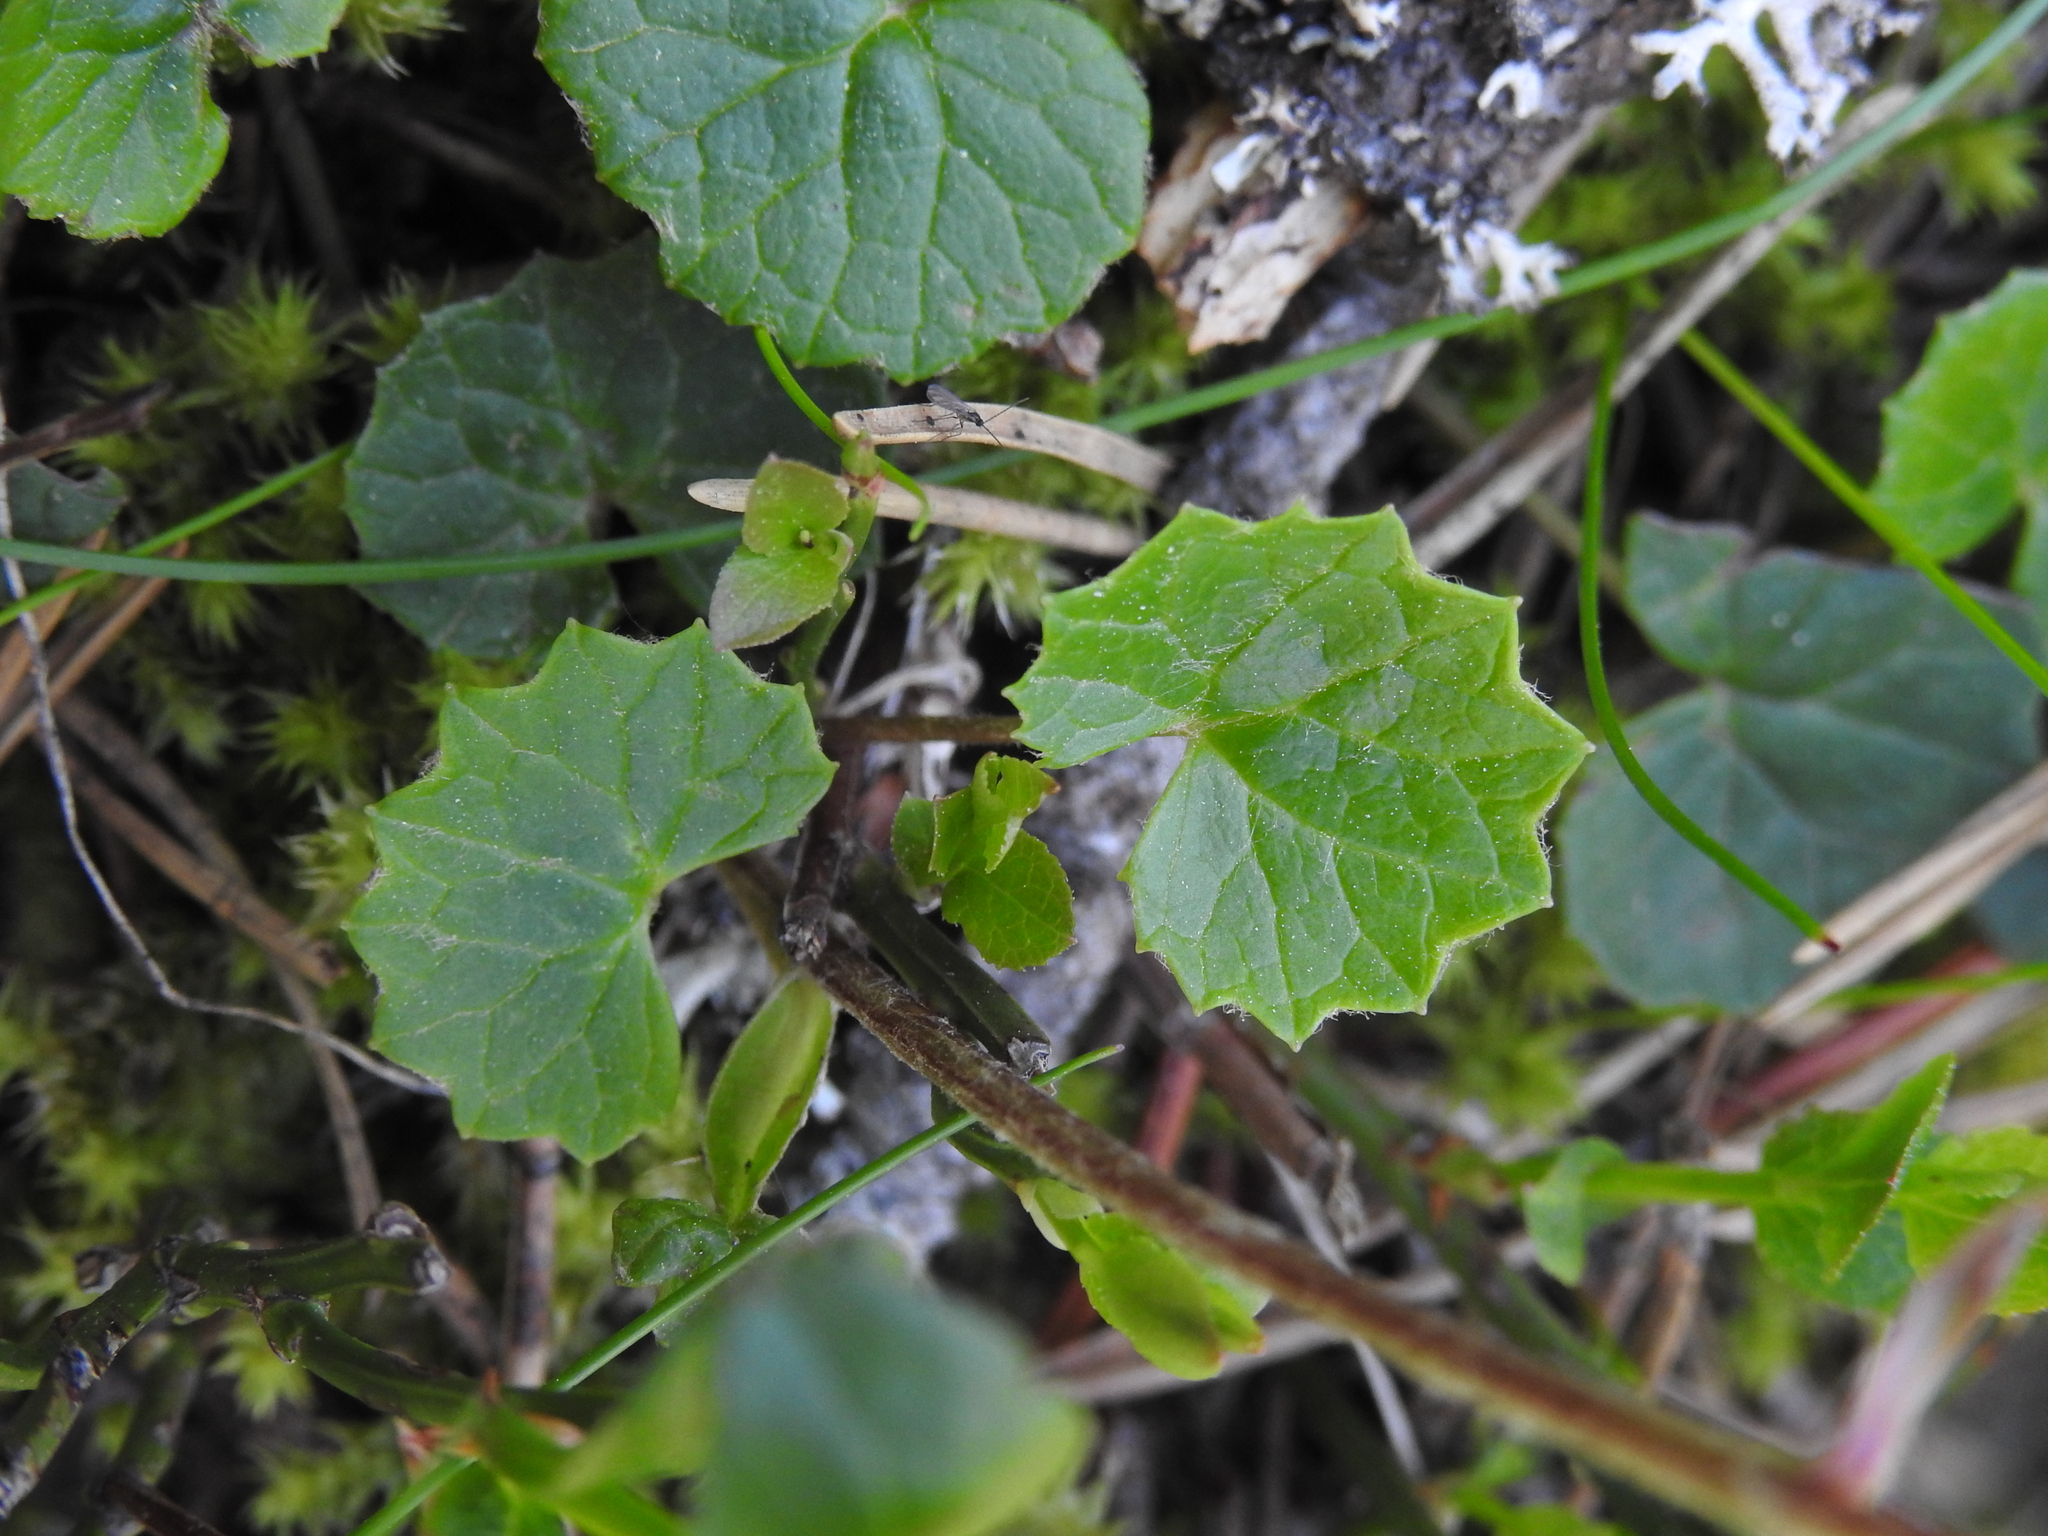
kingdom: Plantae
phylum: Tracheophyta
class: Magnoliopsida
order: Asterales
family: Asteraceae
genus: Homogyne
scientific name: Homogyne alpina
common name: Purple colt's-foot
